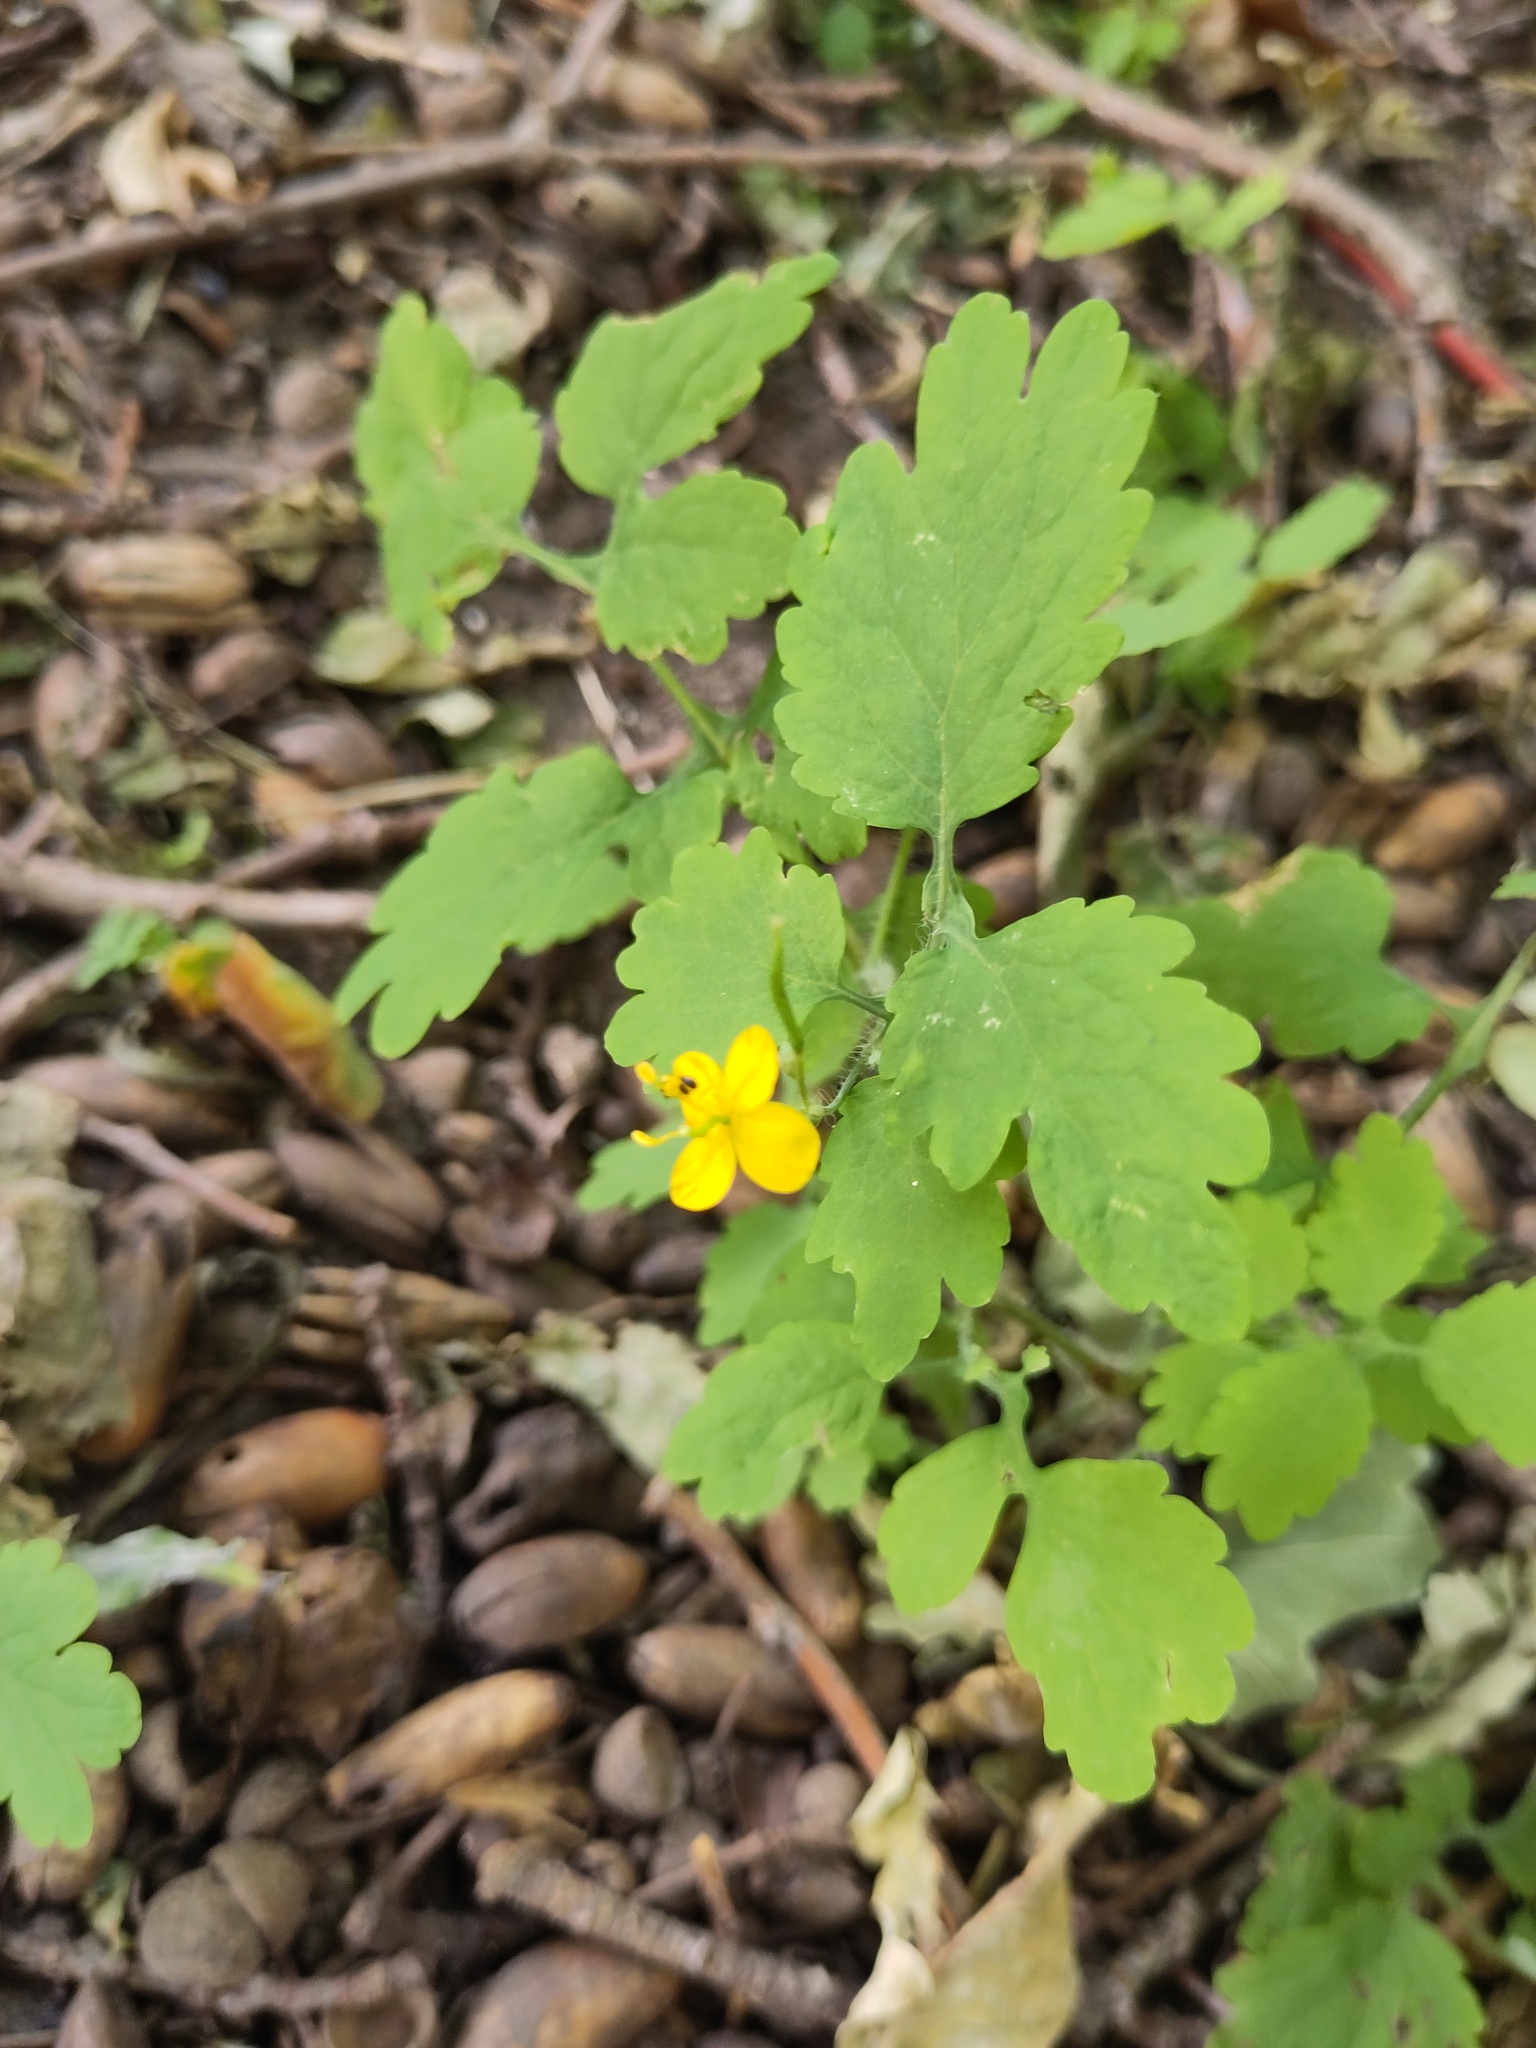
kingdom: Plantae
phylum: Tracheophyta
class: Magnoliopsida
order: Ranunculales
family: Papaveraceae
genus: Chelidonium
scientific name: Chelidonium majus
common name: Greater celandine
